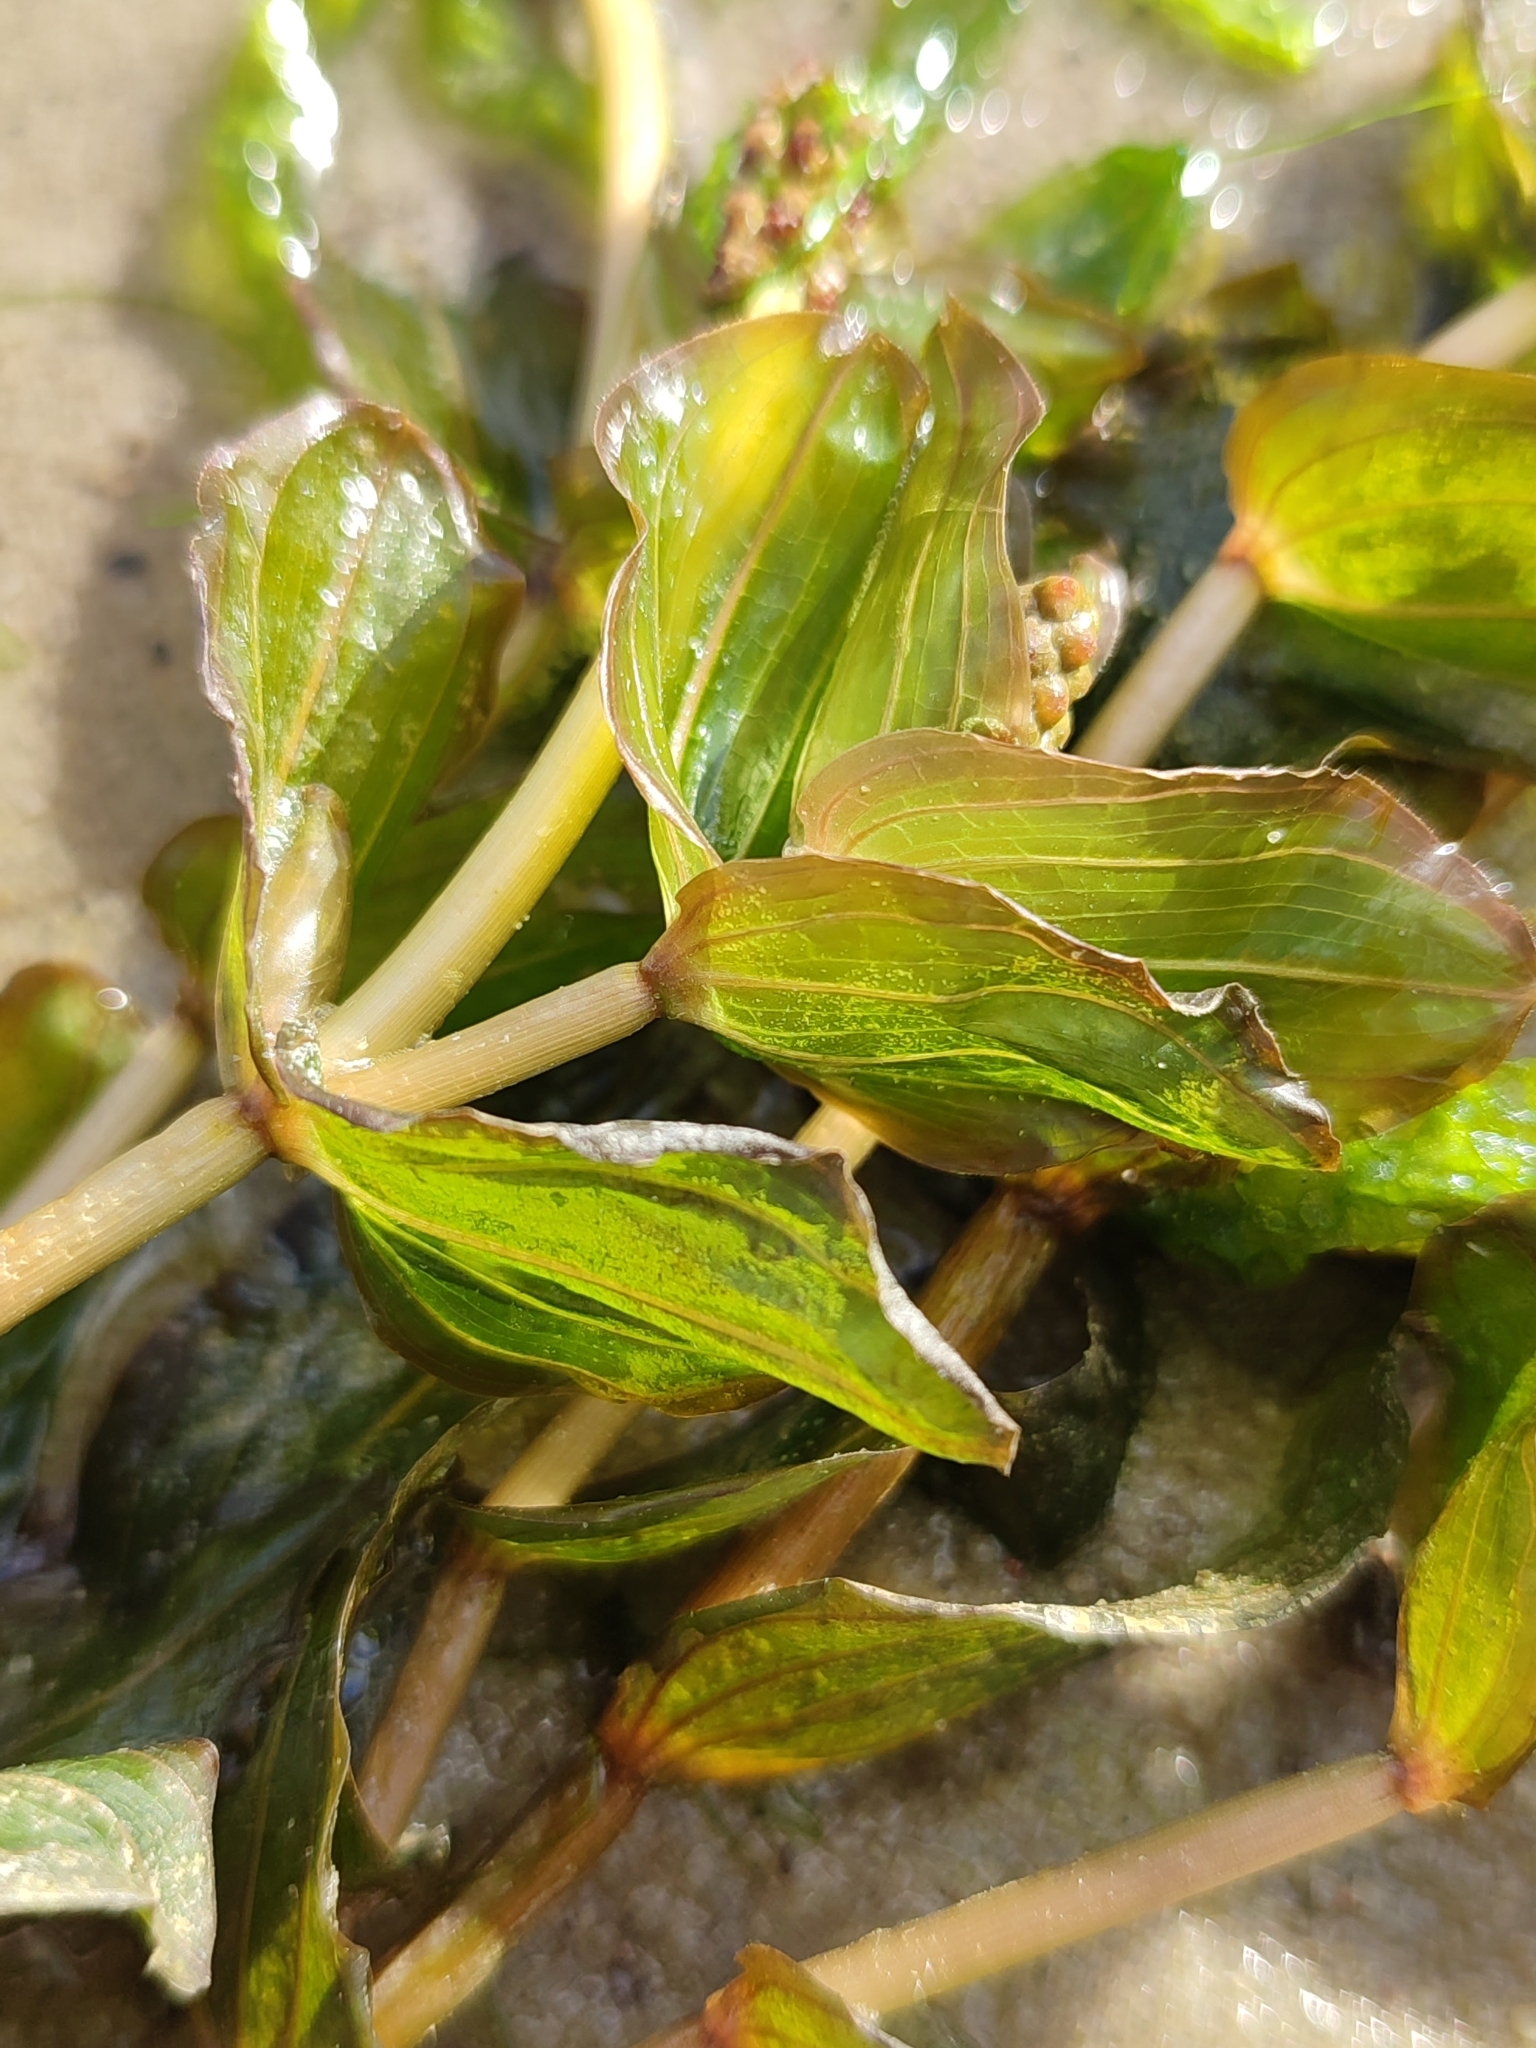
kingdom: Plantae
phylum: Tracheophyta
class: Liliopsida
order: Alismatales
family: Potamogetonaceae
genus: Potamogeton
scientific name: Potamogeton perfoliatus
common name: Perfoliate pondweed
